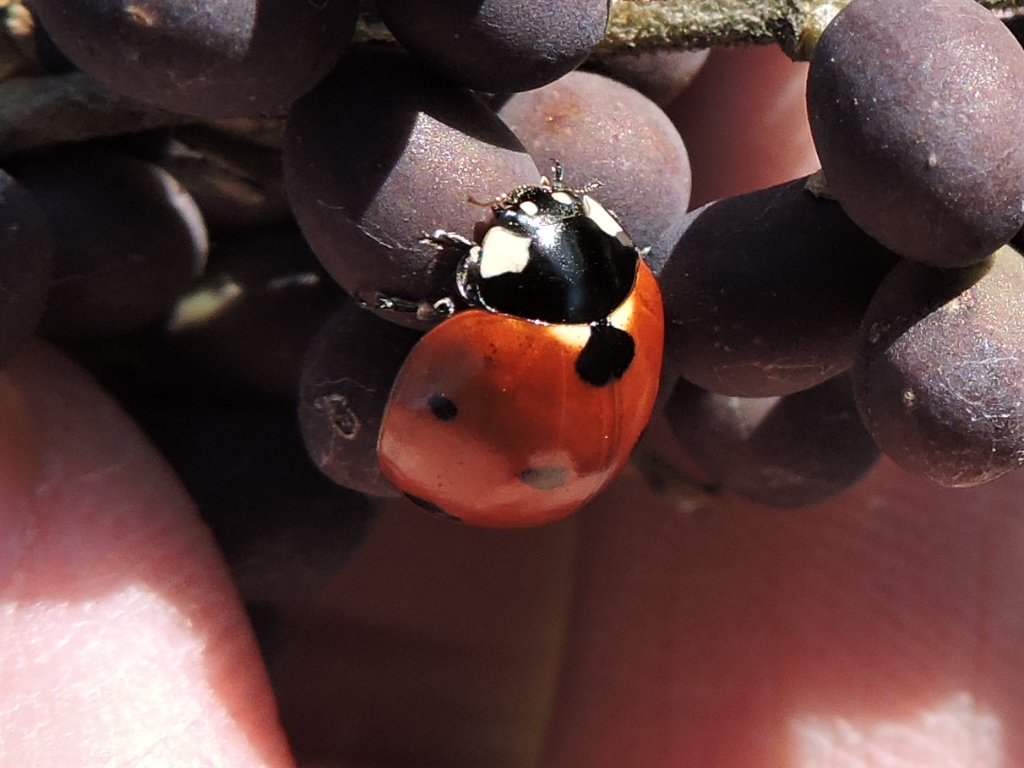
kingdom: Animalia
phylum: Arthropoda
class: Insecta
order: Coleoptera
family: Coccinellidae
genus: Coccinella
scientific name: Coccinella septempunctata
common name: Sevenspotted lady beetle
